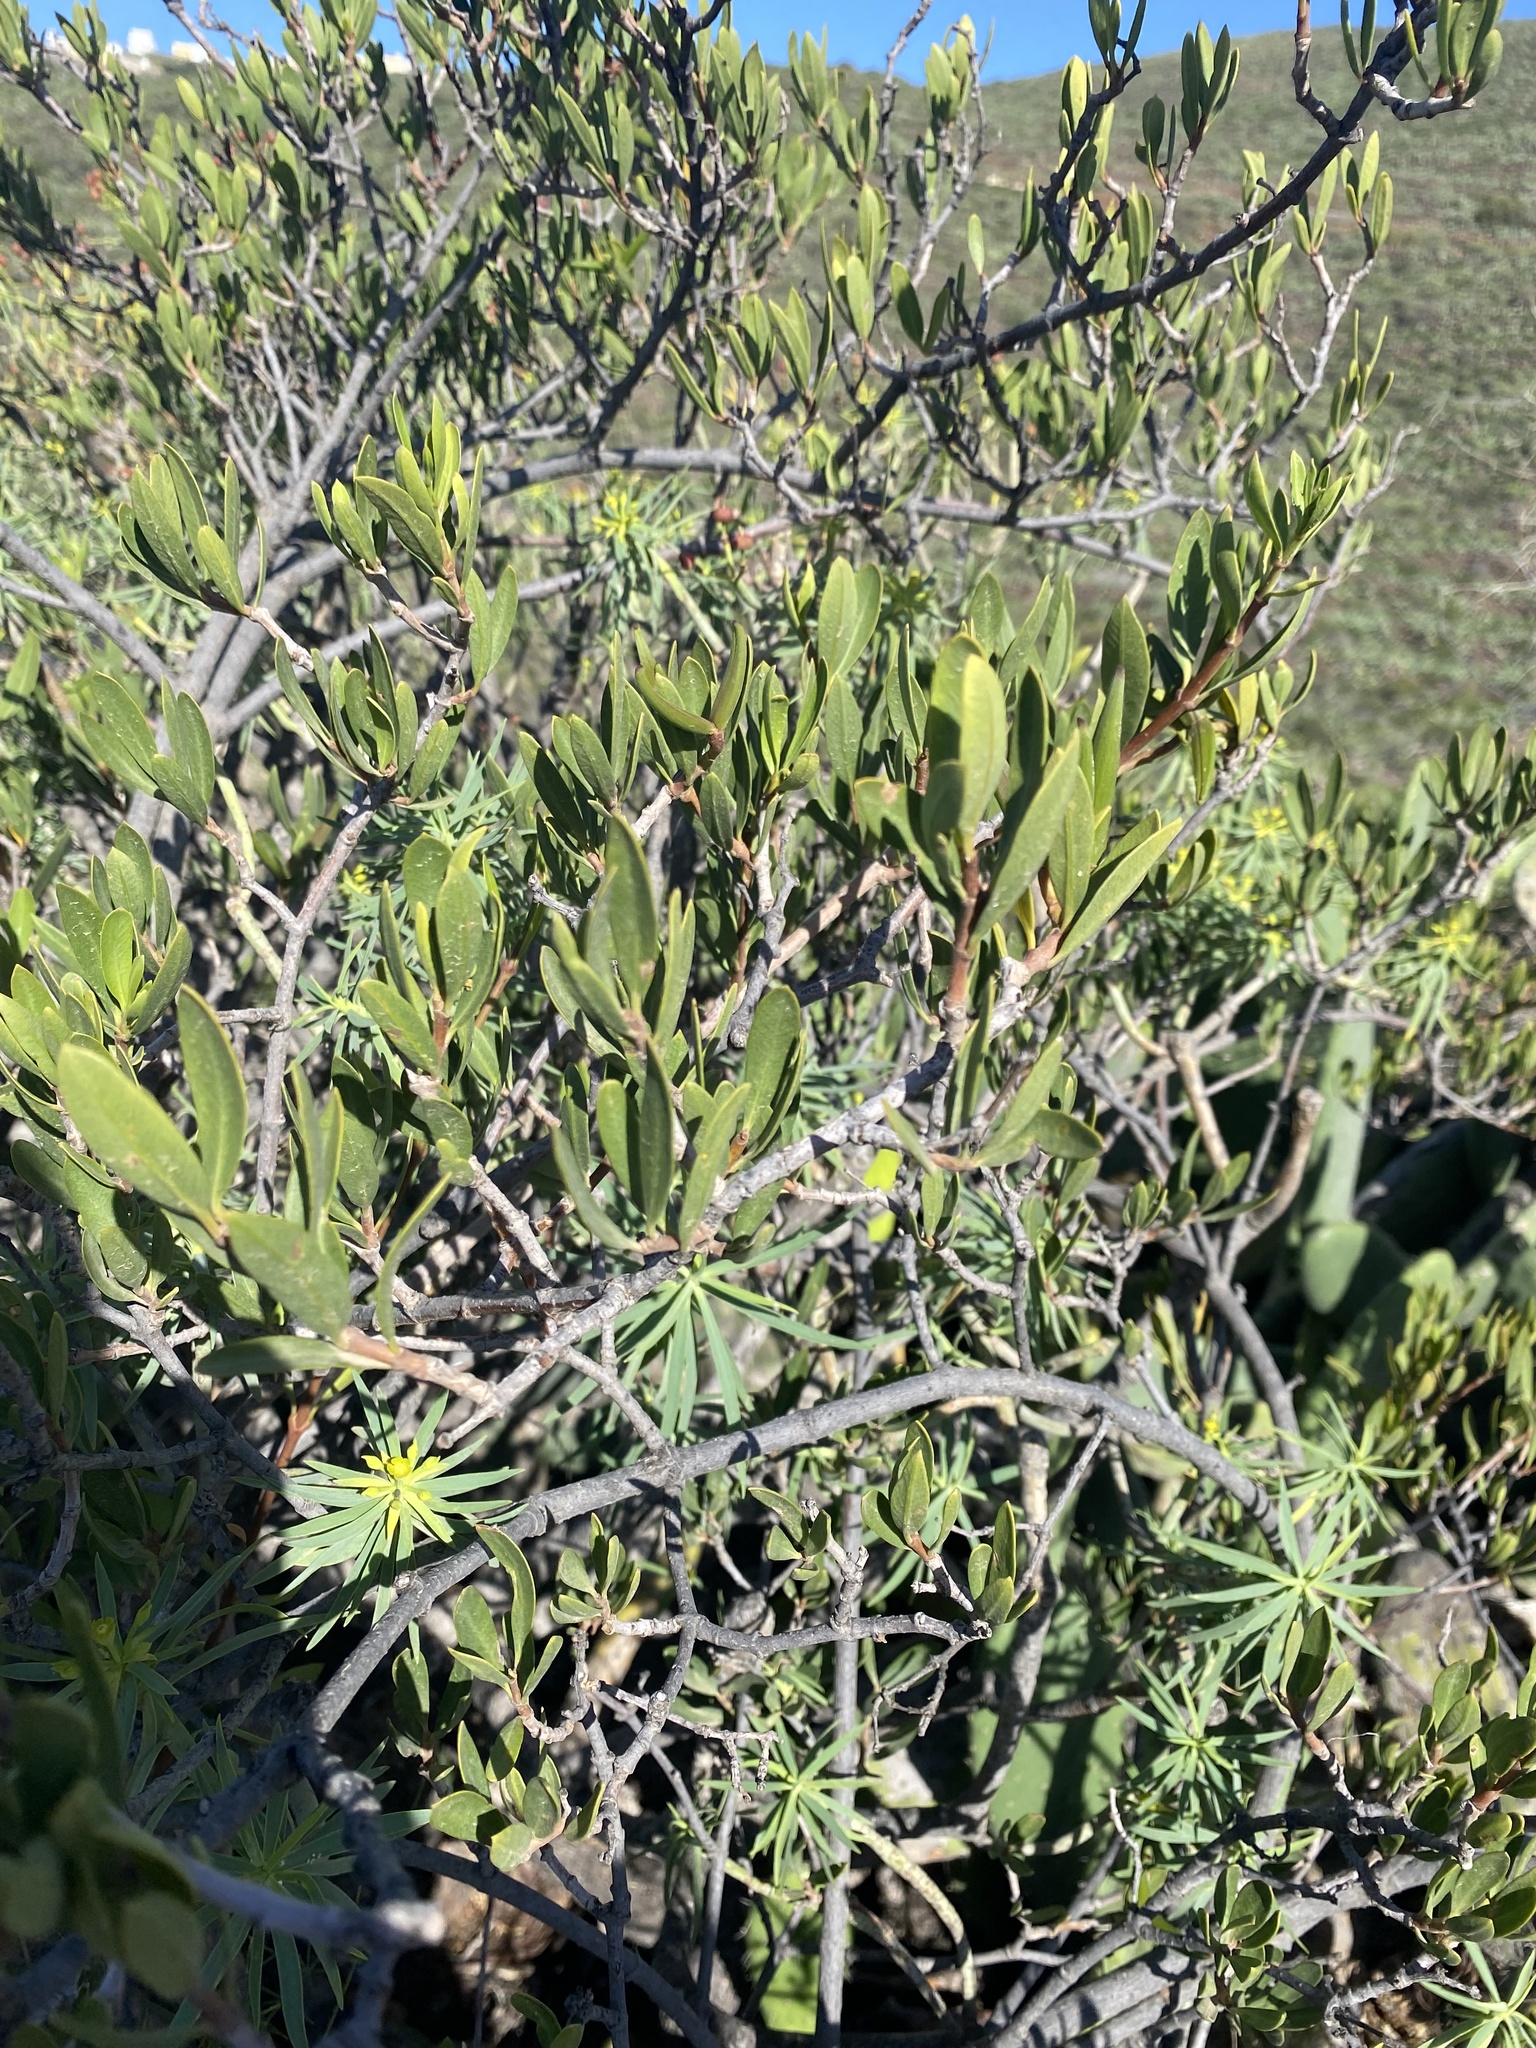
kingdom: Plantae
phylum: Tracheophyta
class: Magnoliopsida
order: Gentianales
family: Apocynaceae
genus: Periploca
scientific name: Periploca laevigata
